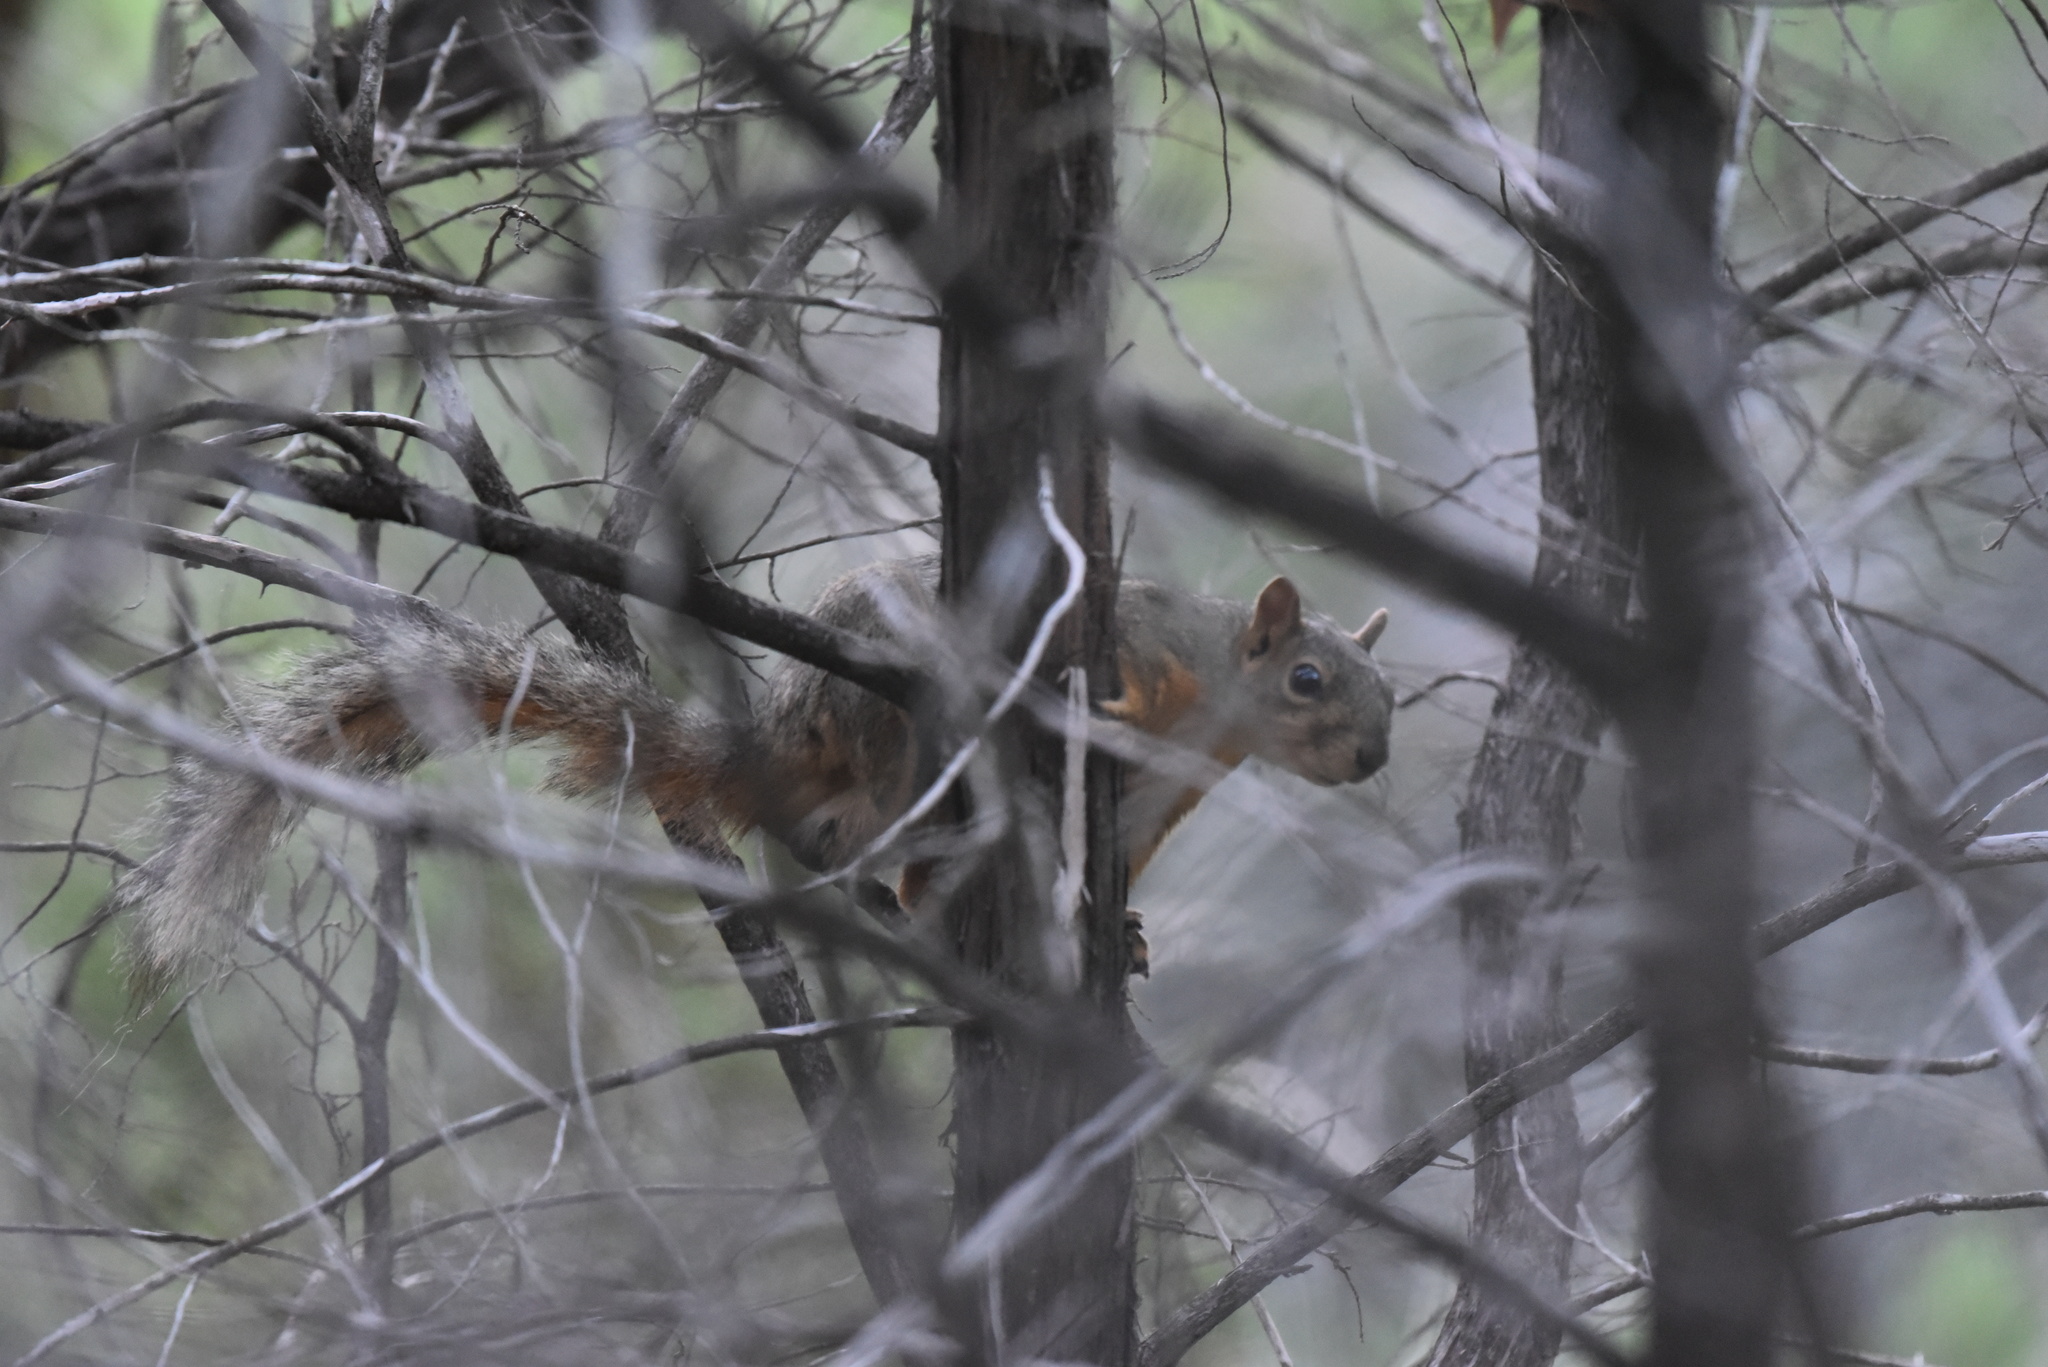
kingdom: Animalia
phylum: Chordata
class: Mammalia
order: Rodentia
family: Sciuridae
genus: Sciurus
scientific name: Sciurus niger
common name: Fox squirrel
